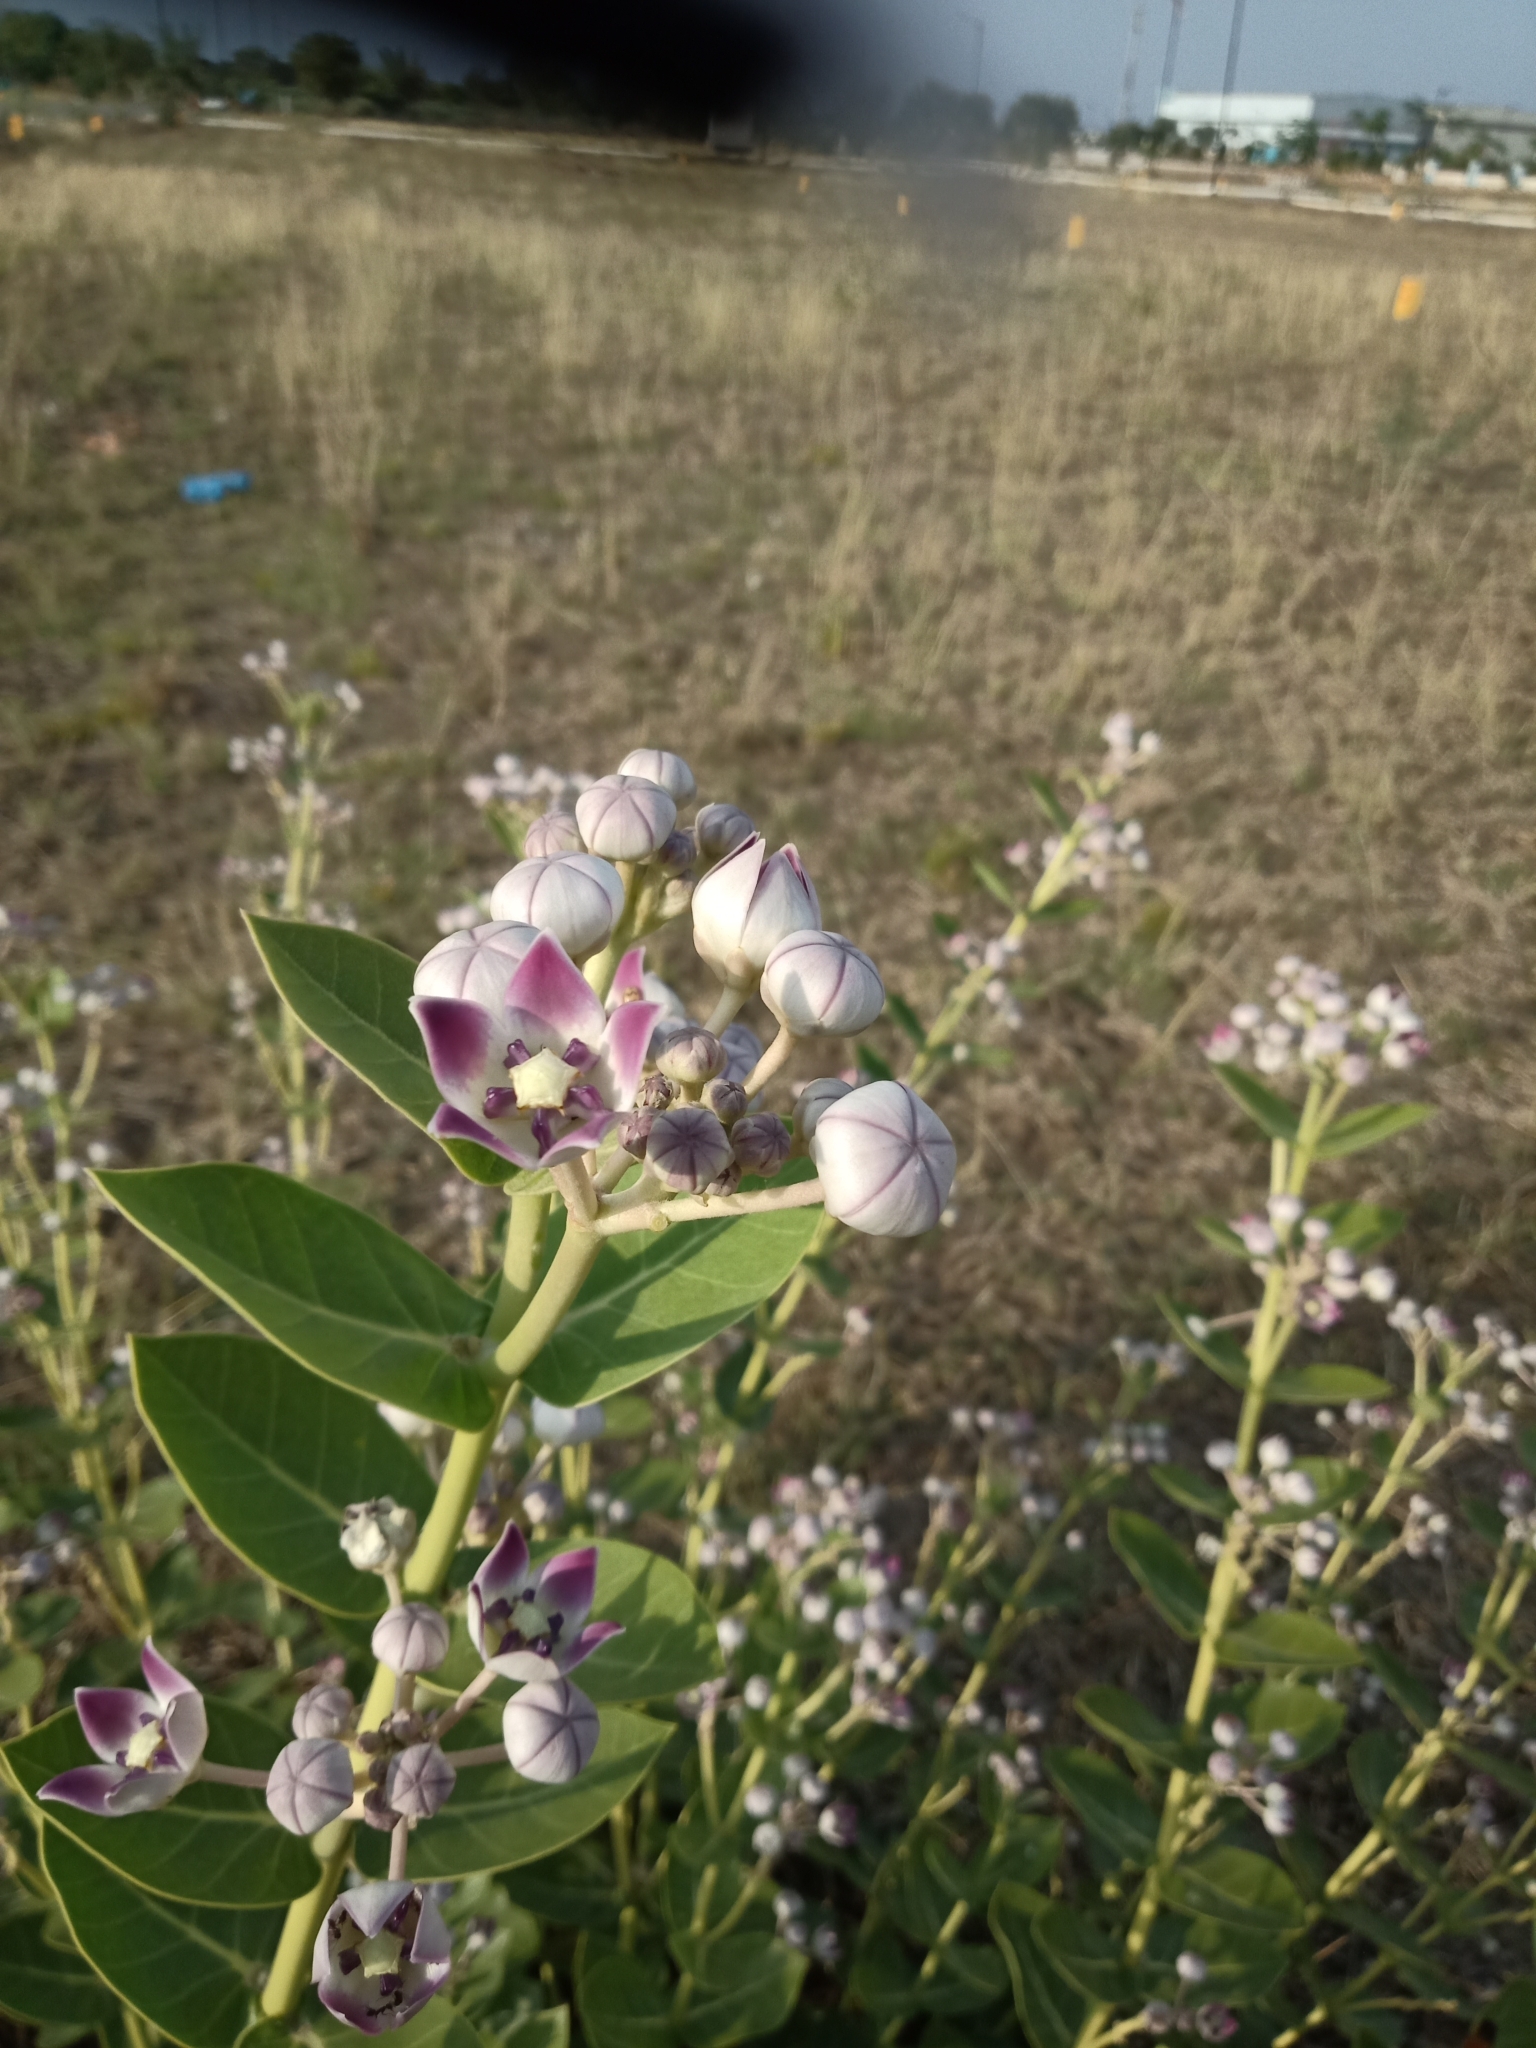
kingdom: Plantae
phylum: Tracheophyta
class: Magnoliopsida
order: Gentianales
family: Apocynaceae
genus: Calotropis
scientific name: Calotropis procera
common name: Roostertree
